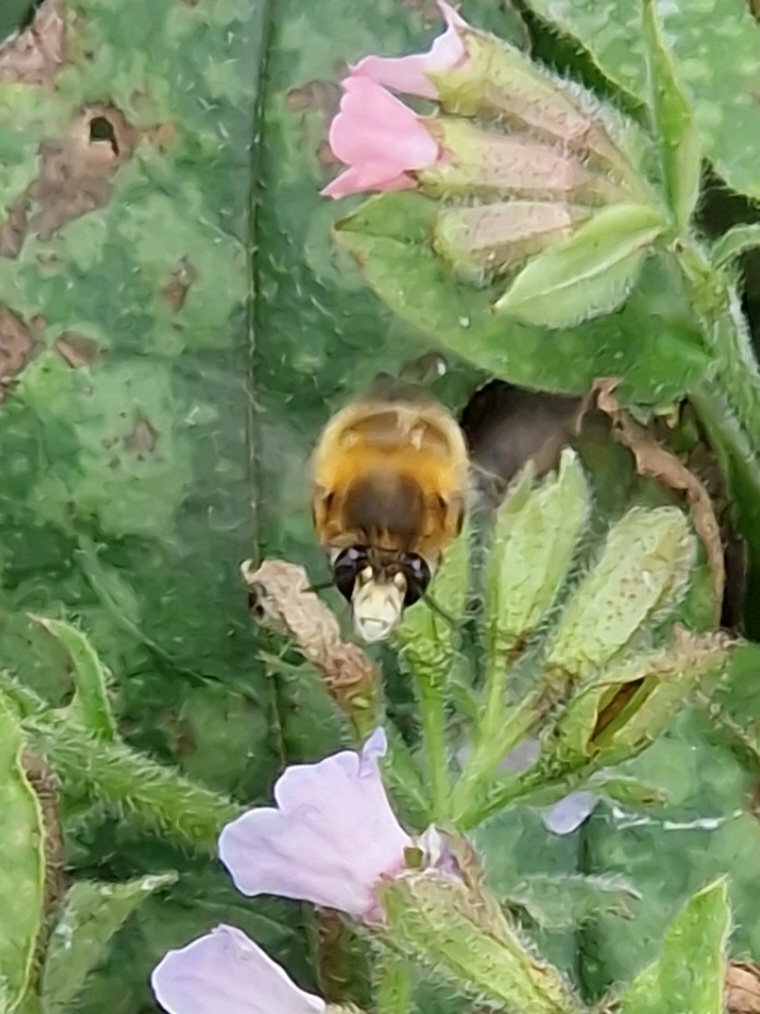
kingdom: Animalia
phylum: Arthropoda
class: Insecta
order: Hymenoptera
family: Apidae
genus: Anthophora
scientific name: Anthophora plumipes
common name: Hairy-footed flower bee
